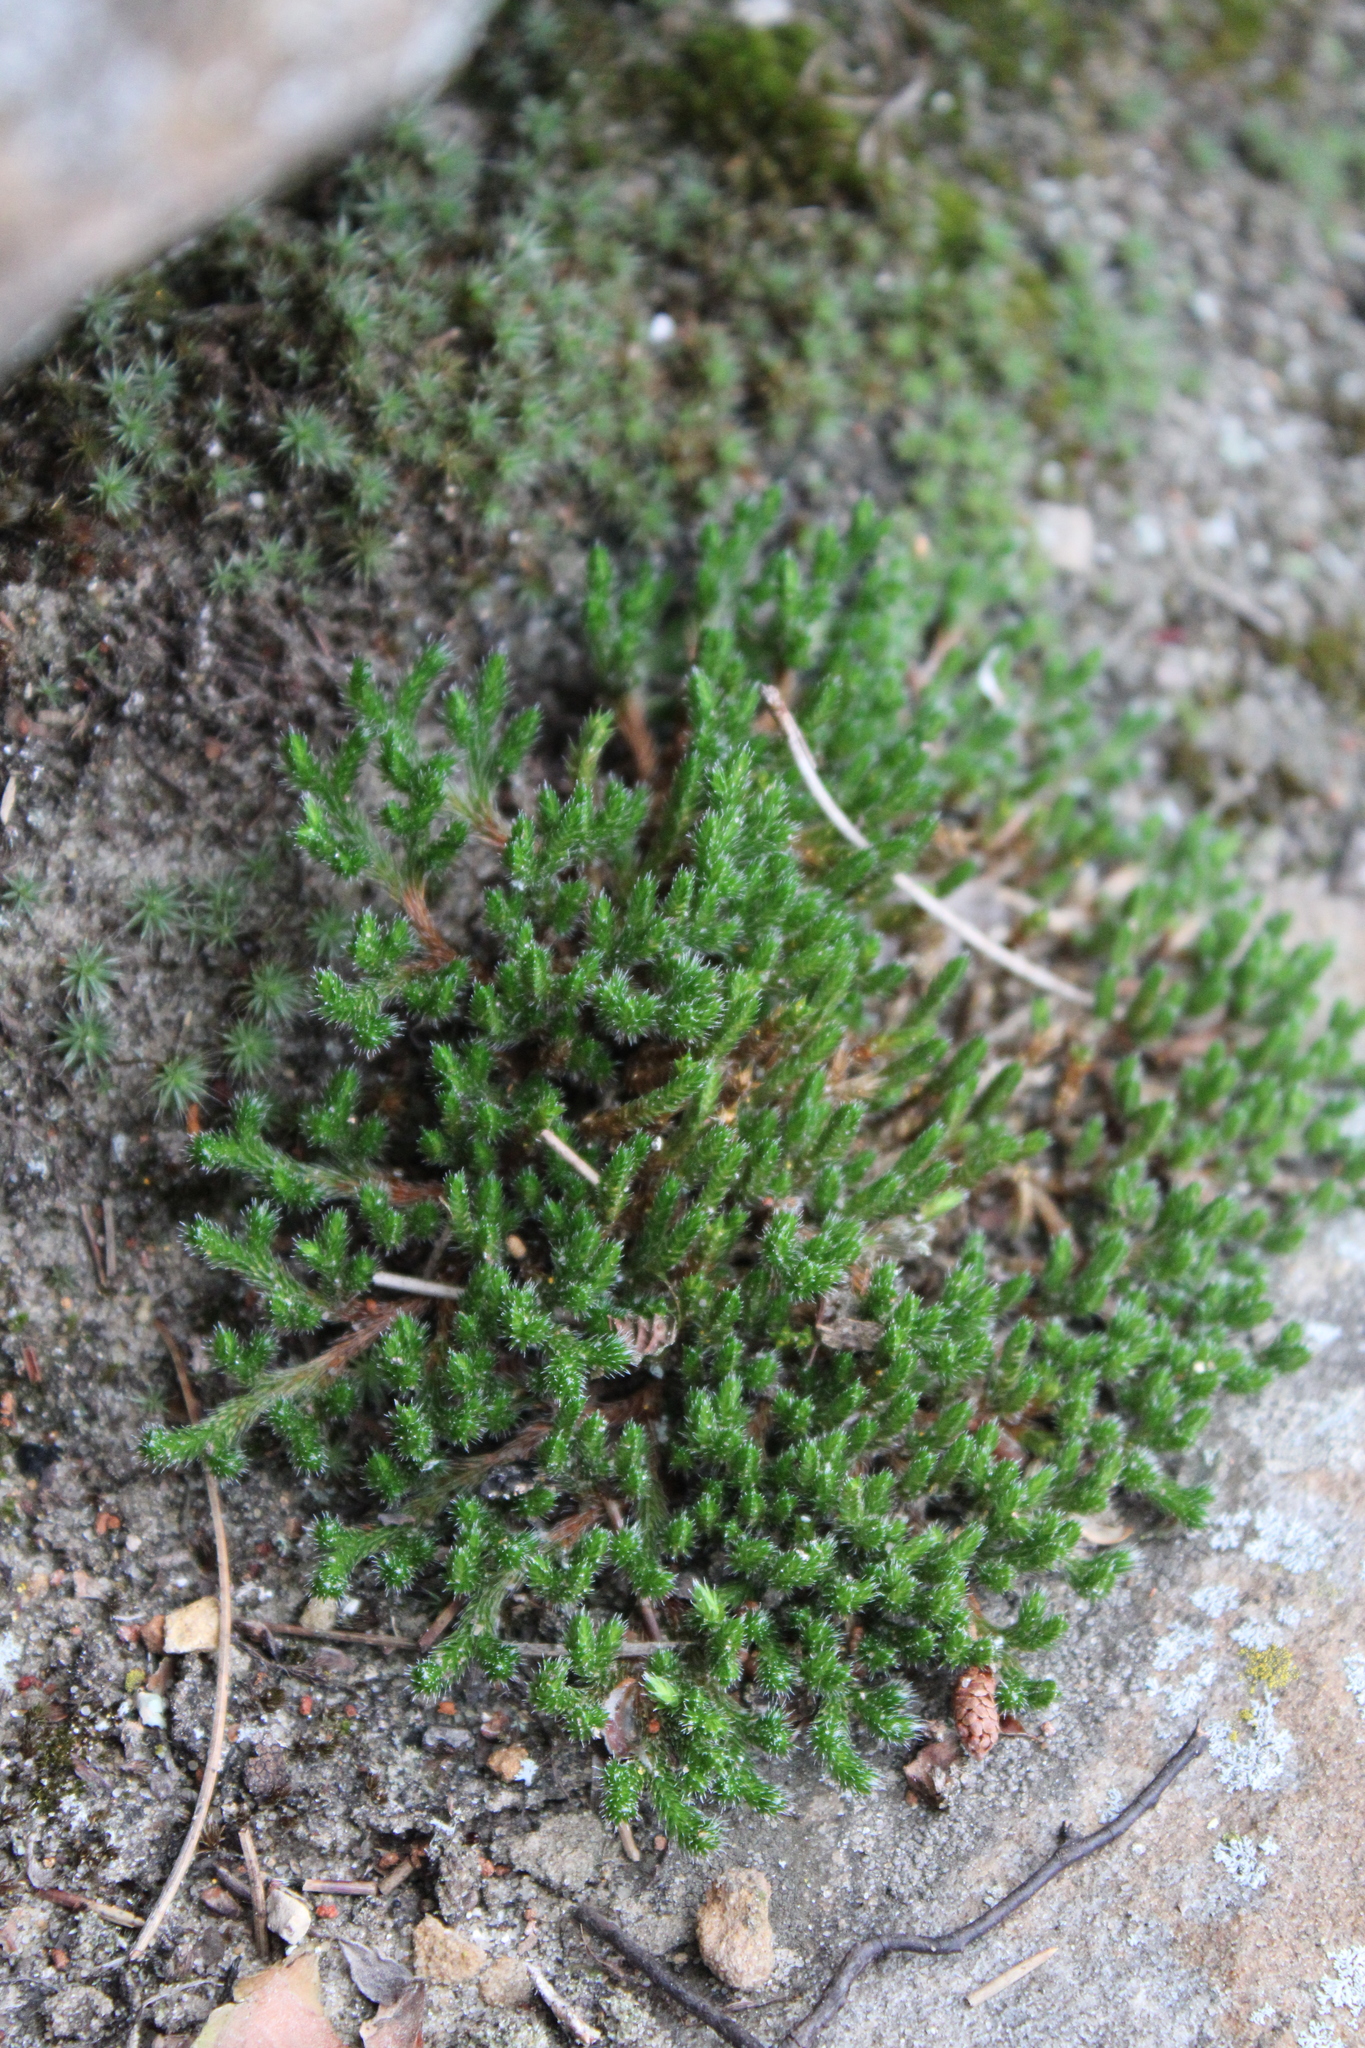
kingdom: Plantae
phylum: Tracheophyta
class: Lycopodiopsida
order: Selaginellales
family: Selaginellaceae
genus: Selaginella
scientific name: Selaginella rupestris
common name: Dwarf spikemoss
